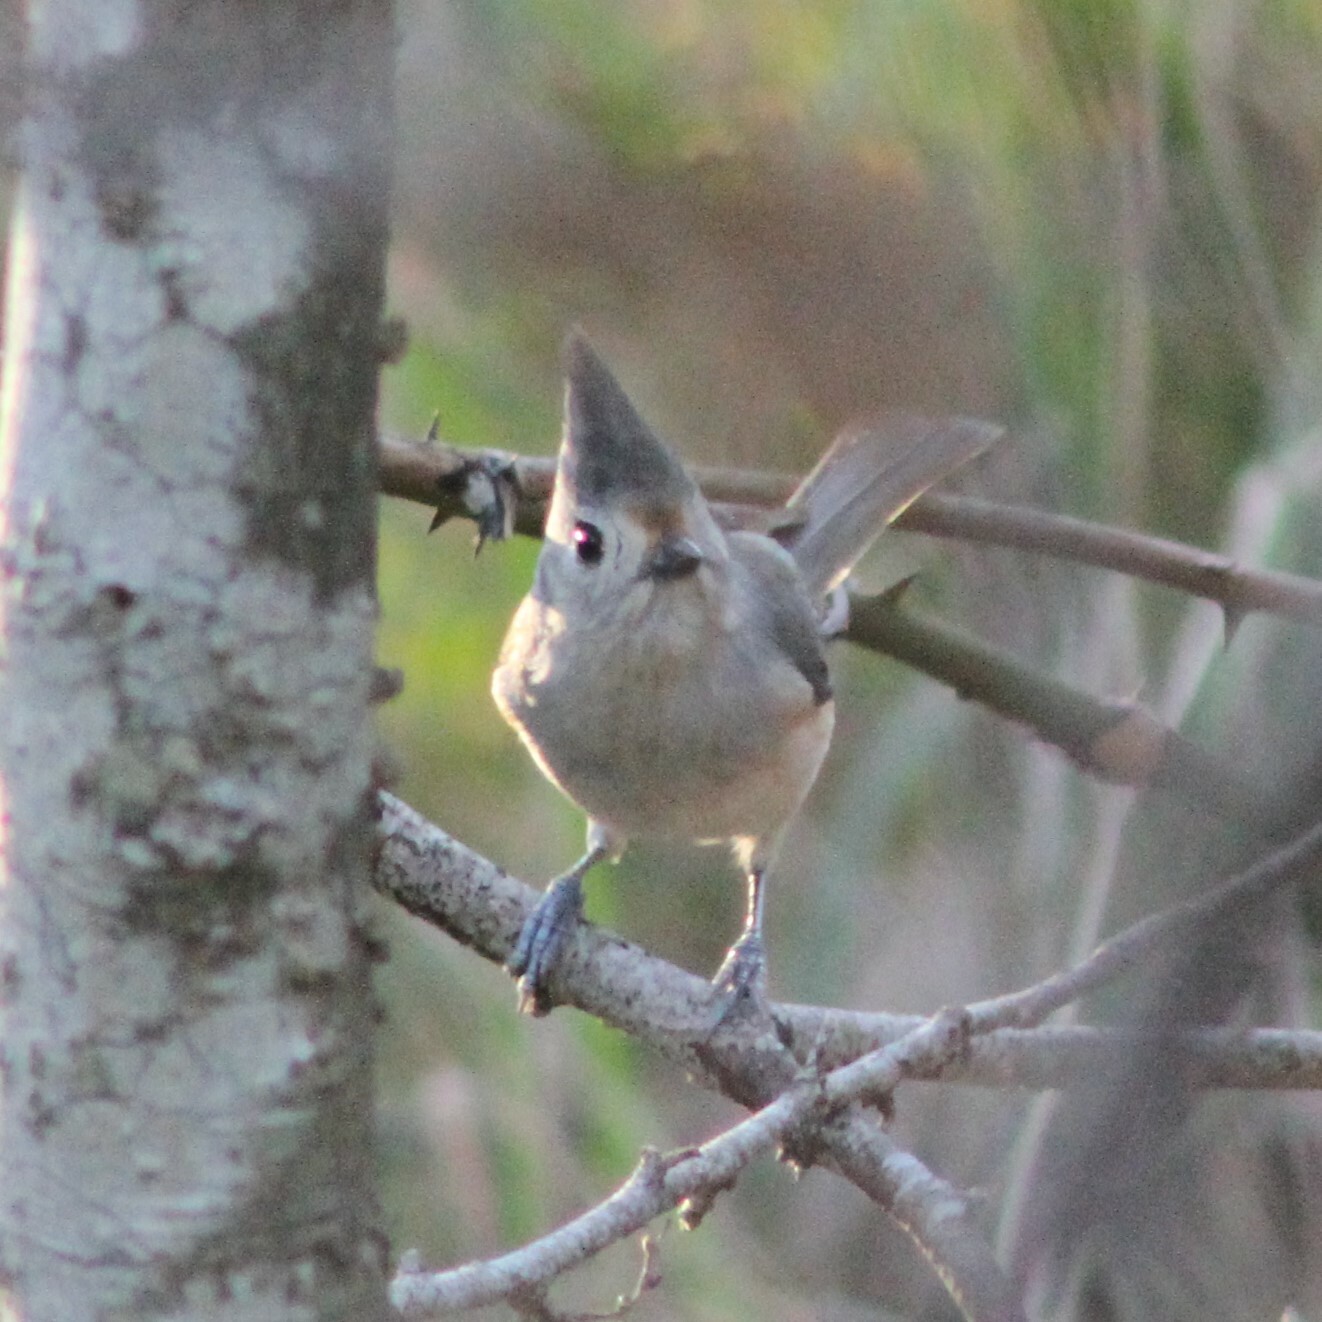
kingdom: Animalia
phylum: Chordata
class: Aves
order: Passeriformes
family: Paridae
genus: Baeolophus
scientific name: Baeolophus
